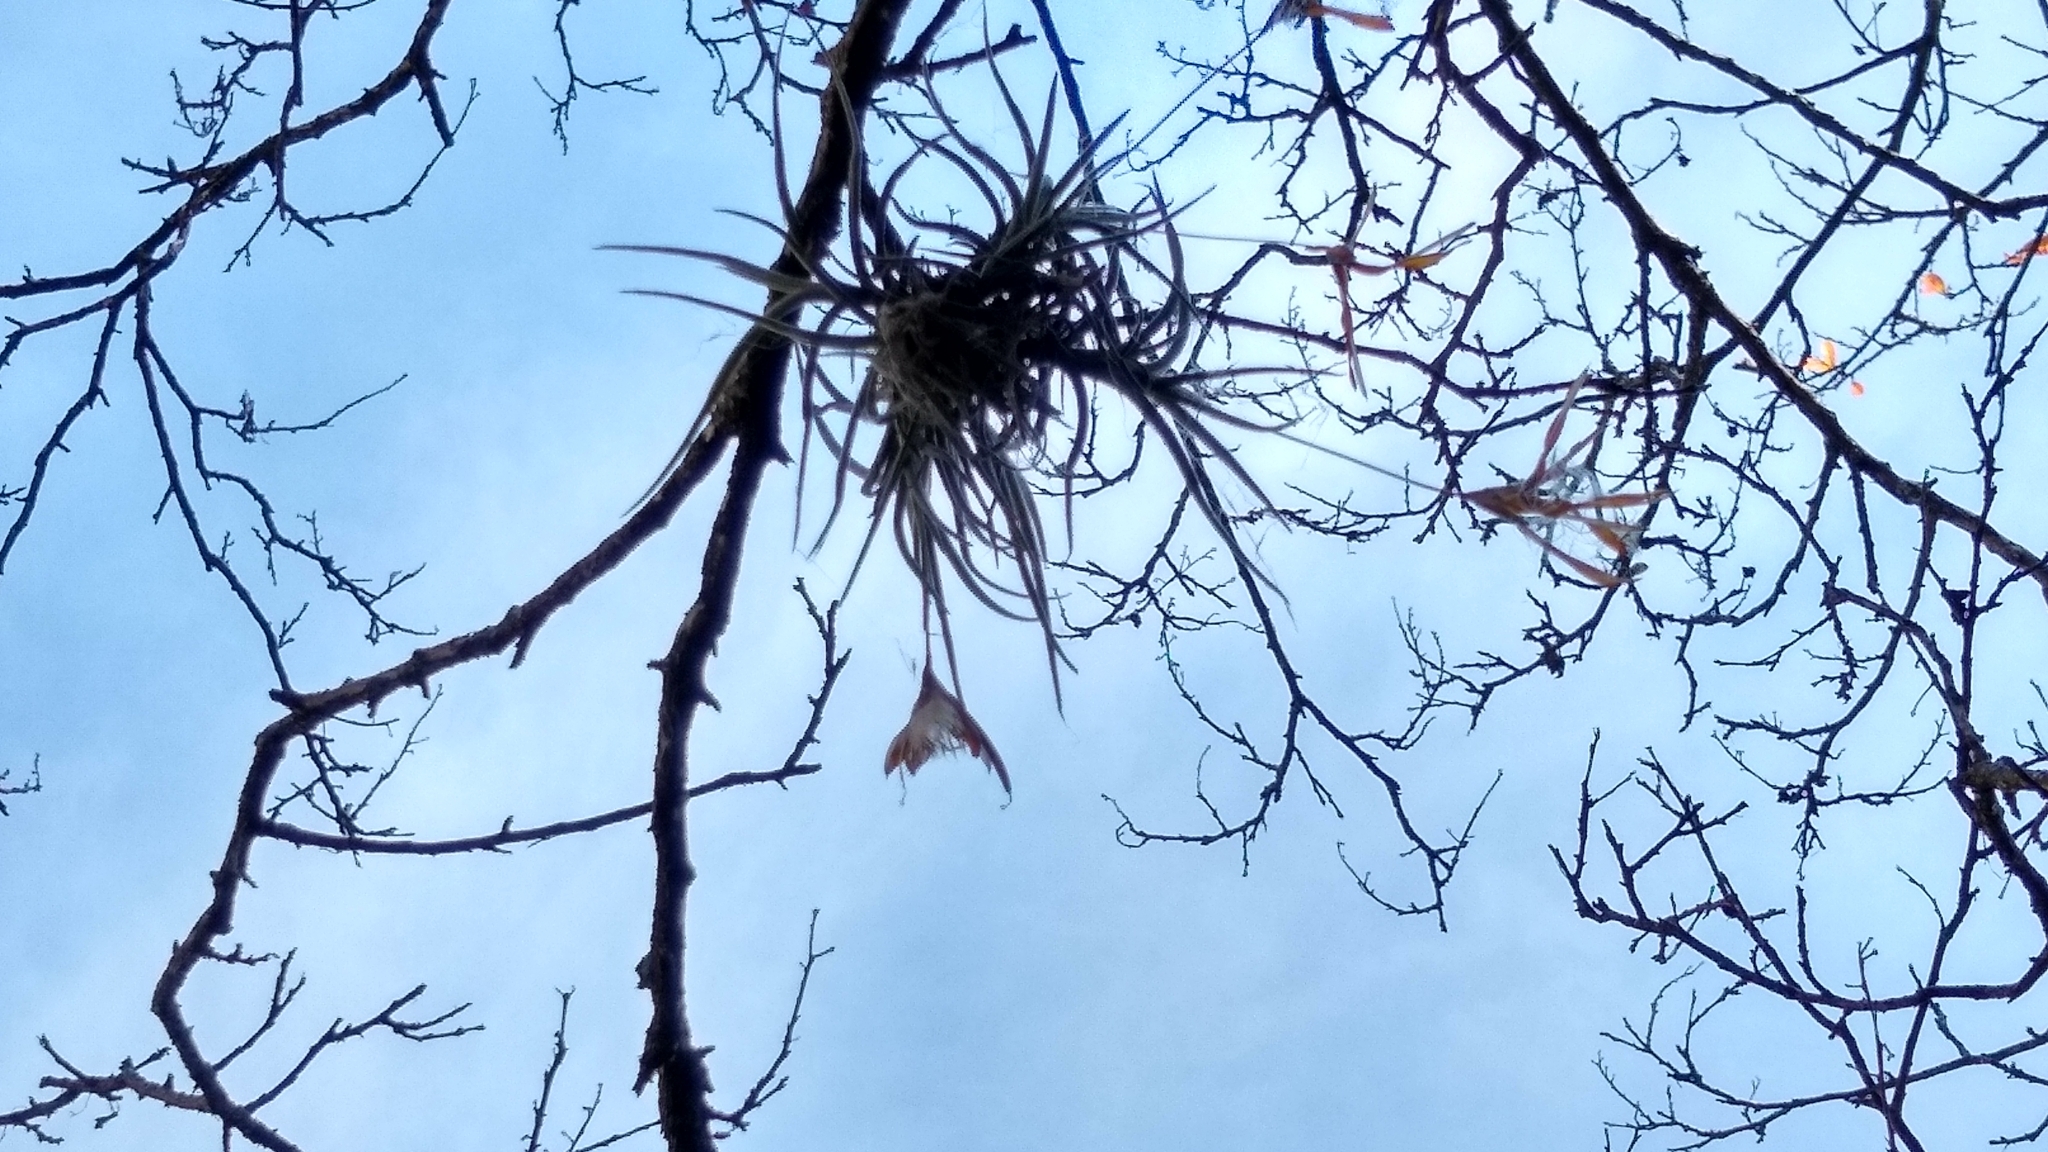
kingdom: Plantae
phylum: Tracheophyta
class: Liliopsida
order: Poales
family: Bromeliaceae
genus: Tillandsia
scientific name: Tillandsia recurvata
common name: Small ballmoss
